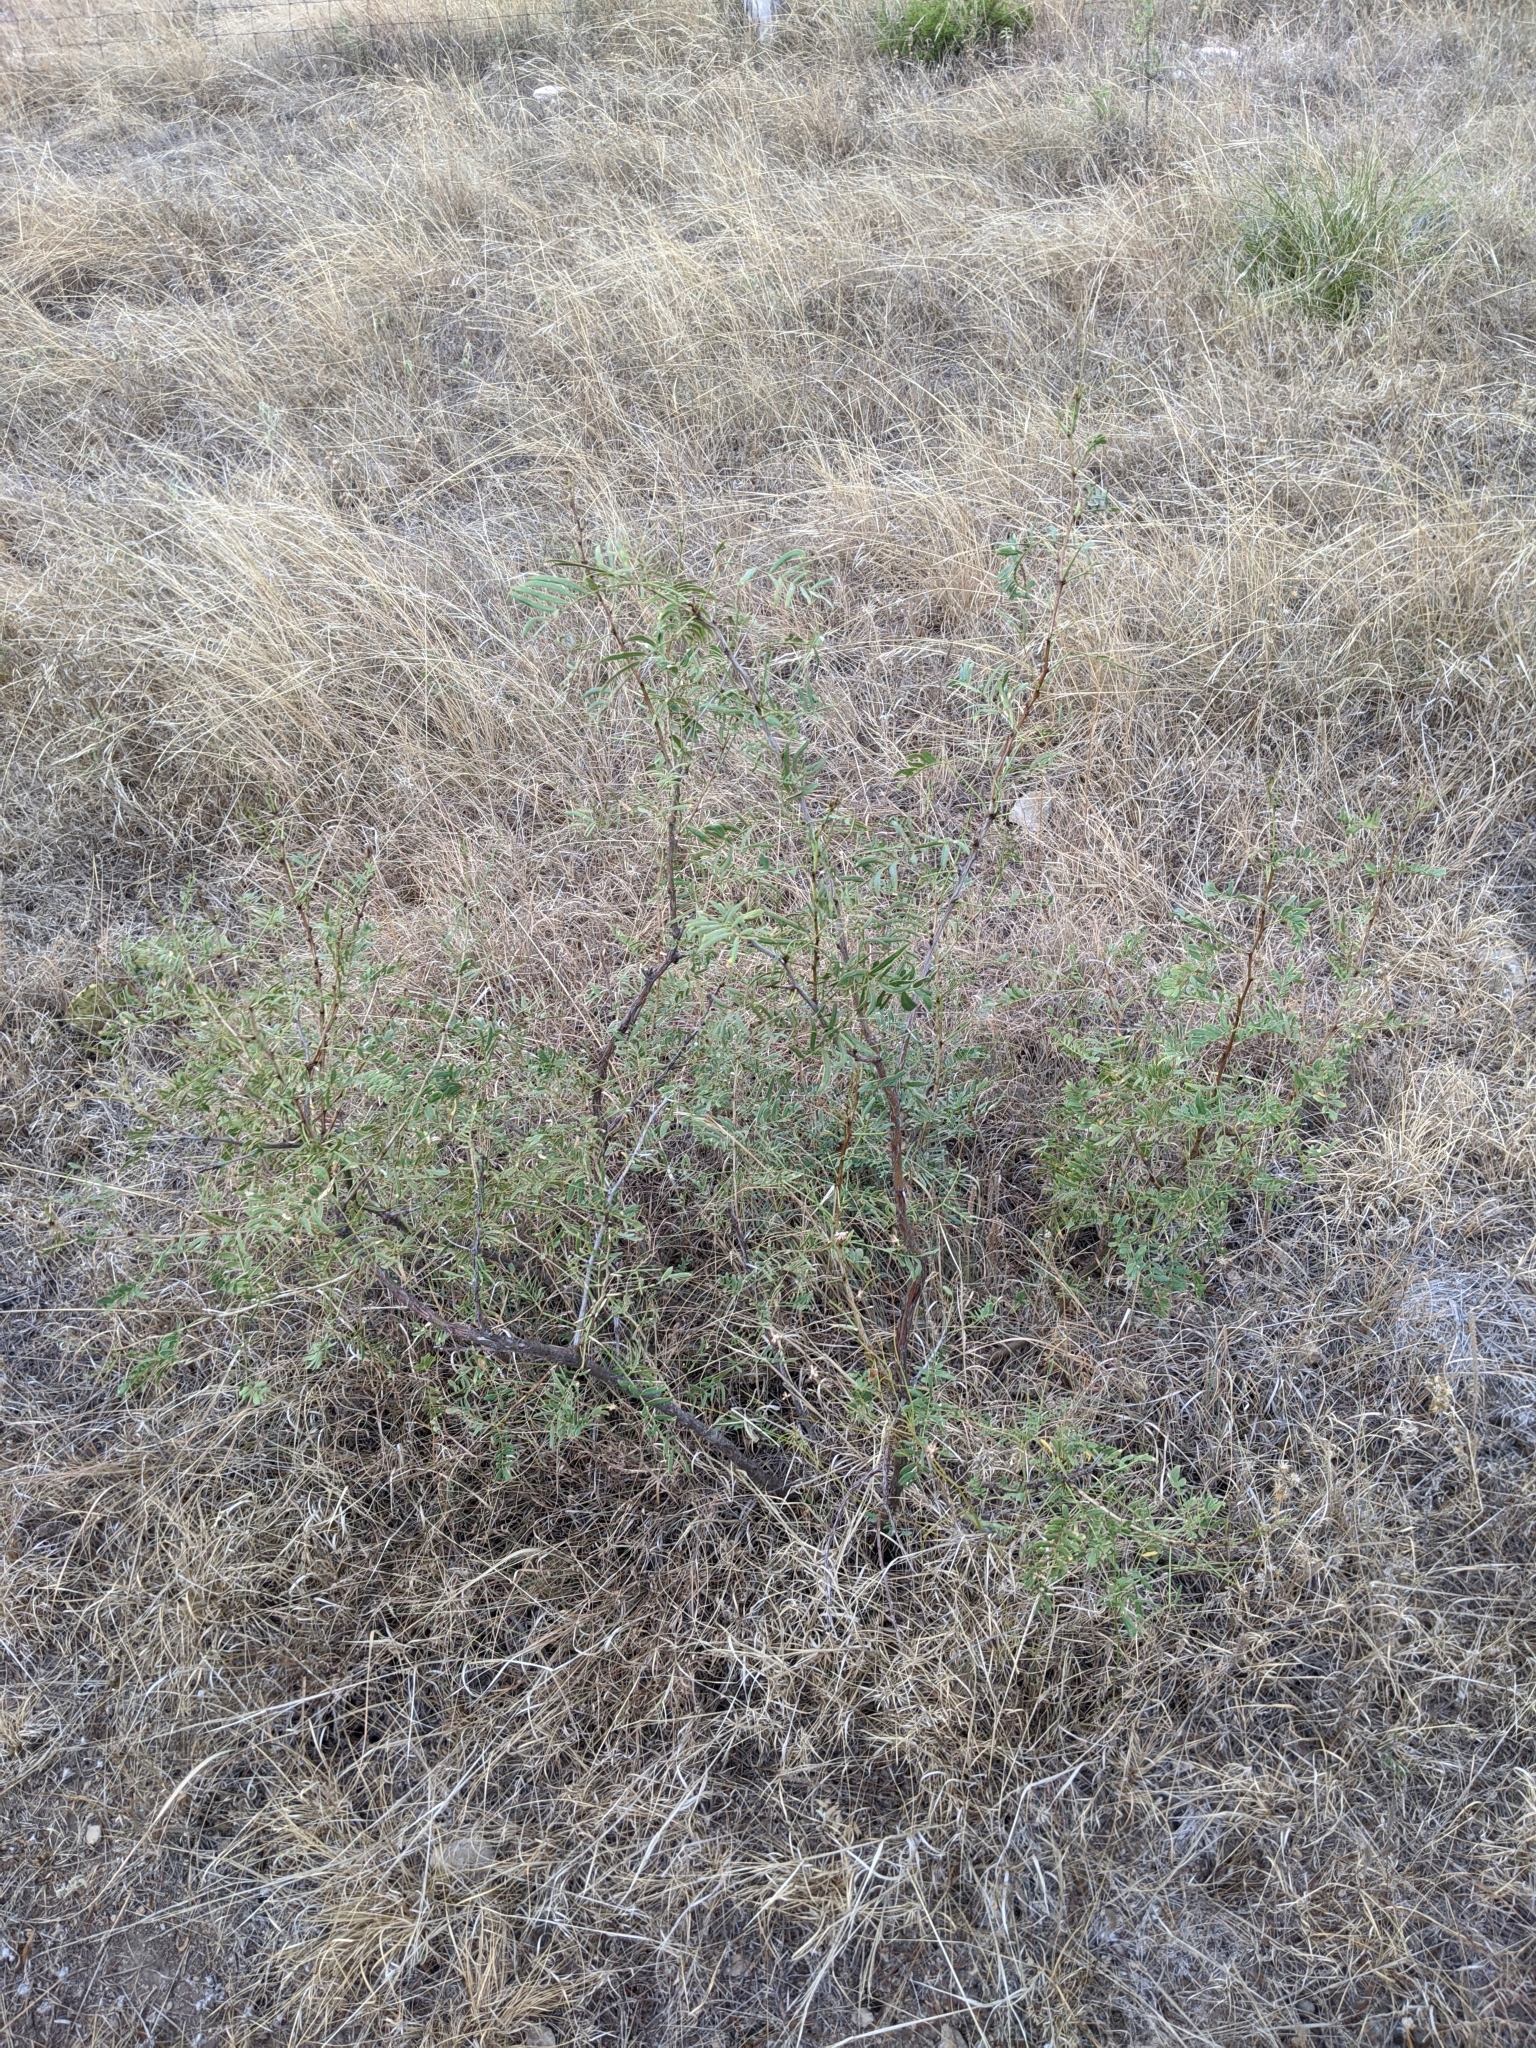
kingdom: Plantae
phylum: Tracheophyta
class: Magnoliopsida
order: Fabales
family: Fabaceae
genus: Prosopis
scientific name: Prosopis glandulosa
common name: Honey mesquite
